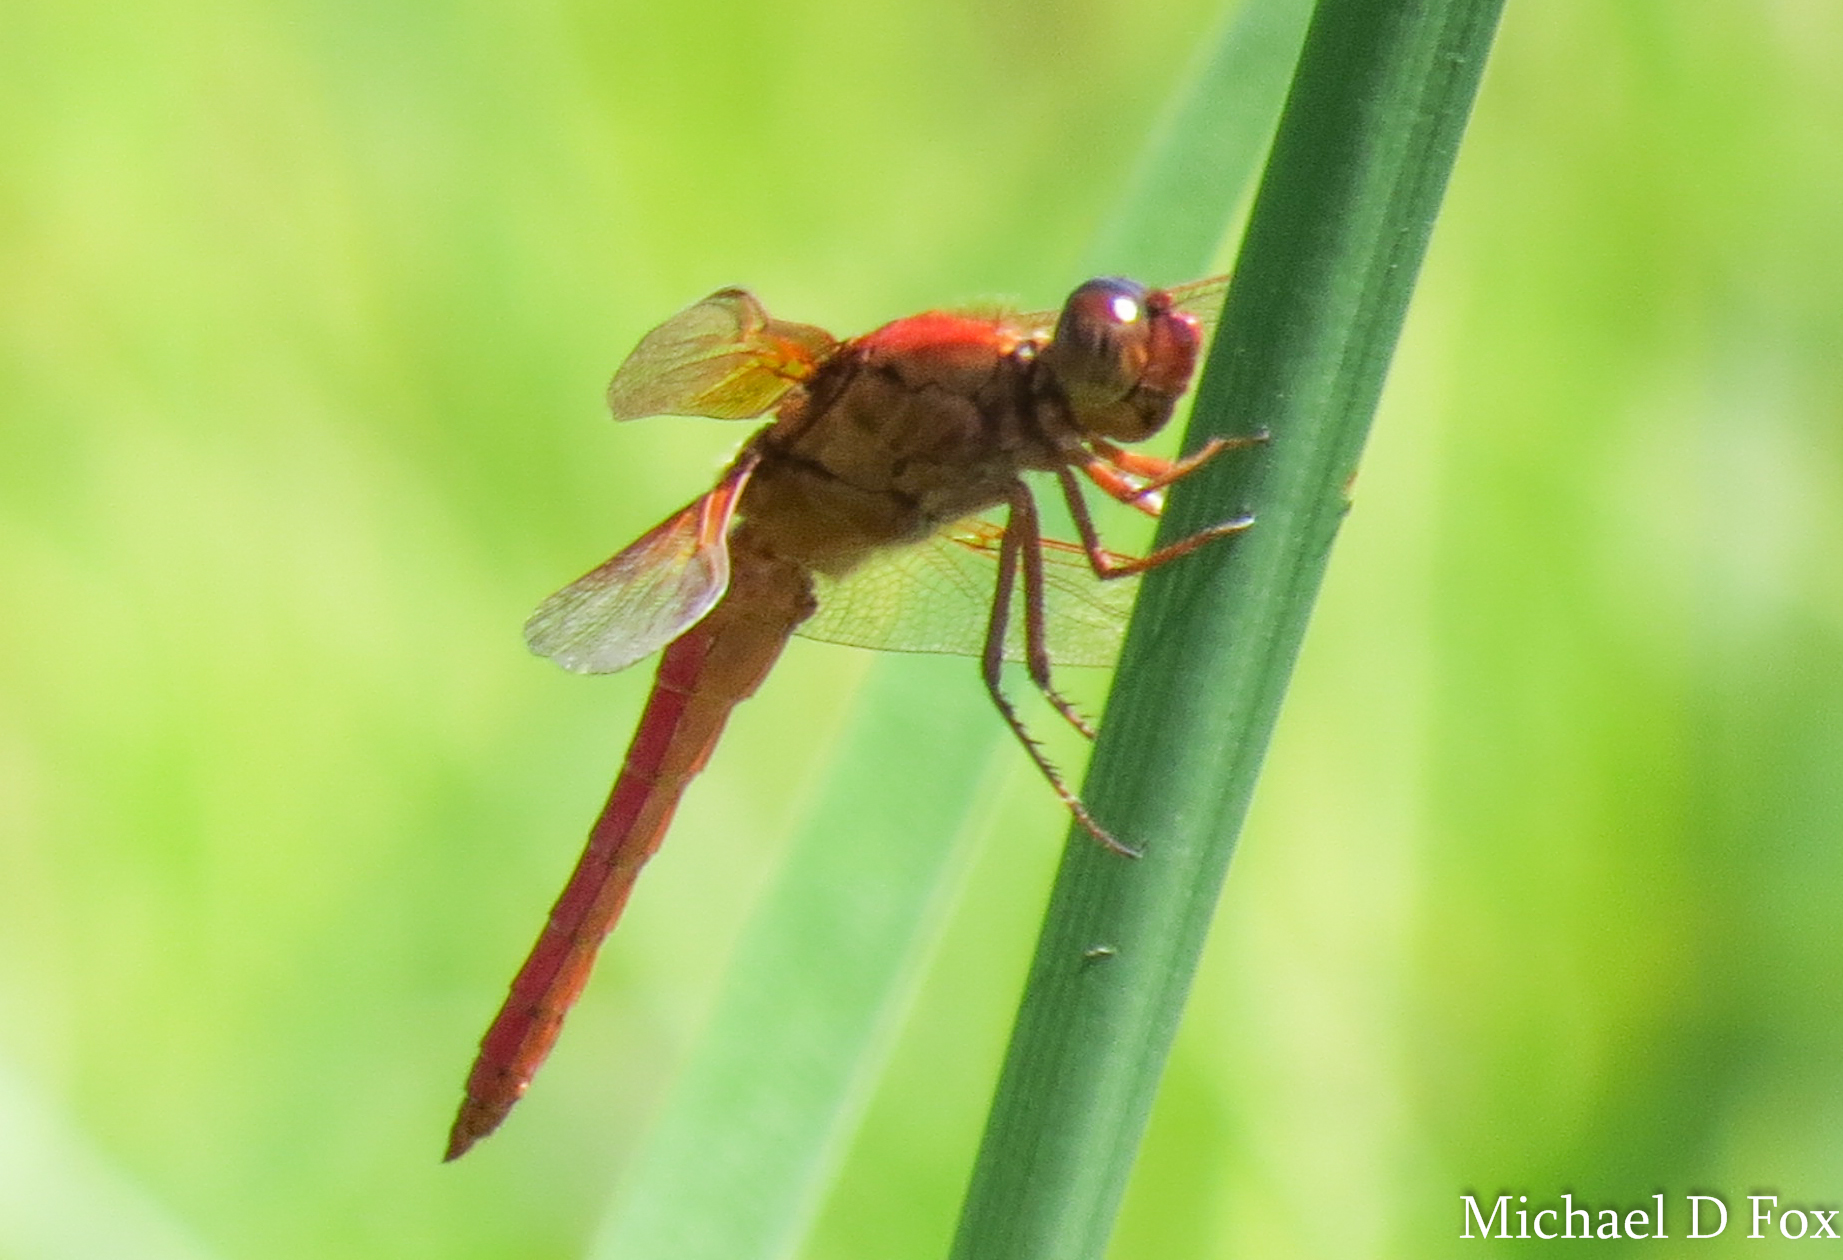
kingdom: Animalia
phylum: Arthropoda
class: Insecta
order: Odonata
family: Libellulidae
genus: Libellula
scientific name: Libellula croceipennis
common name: Neon skimmer
